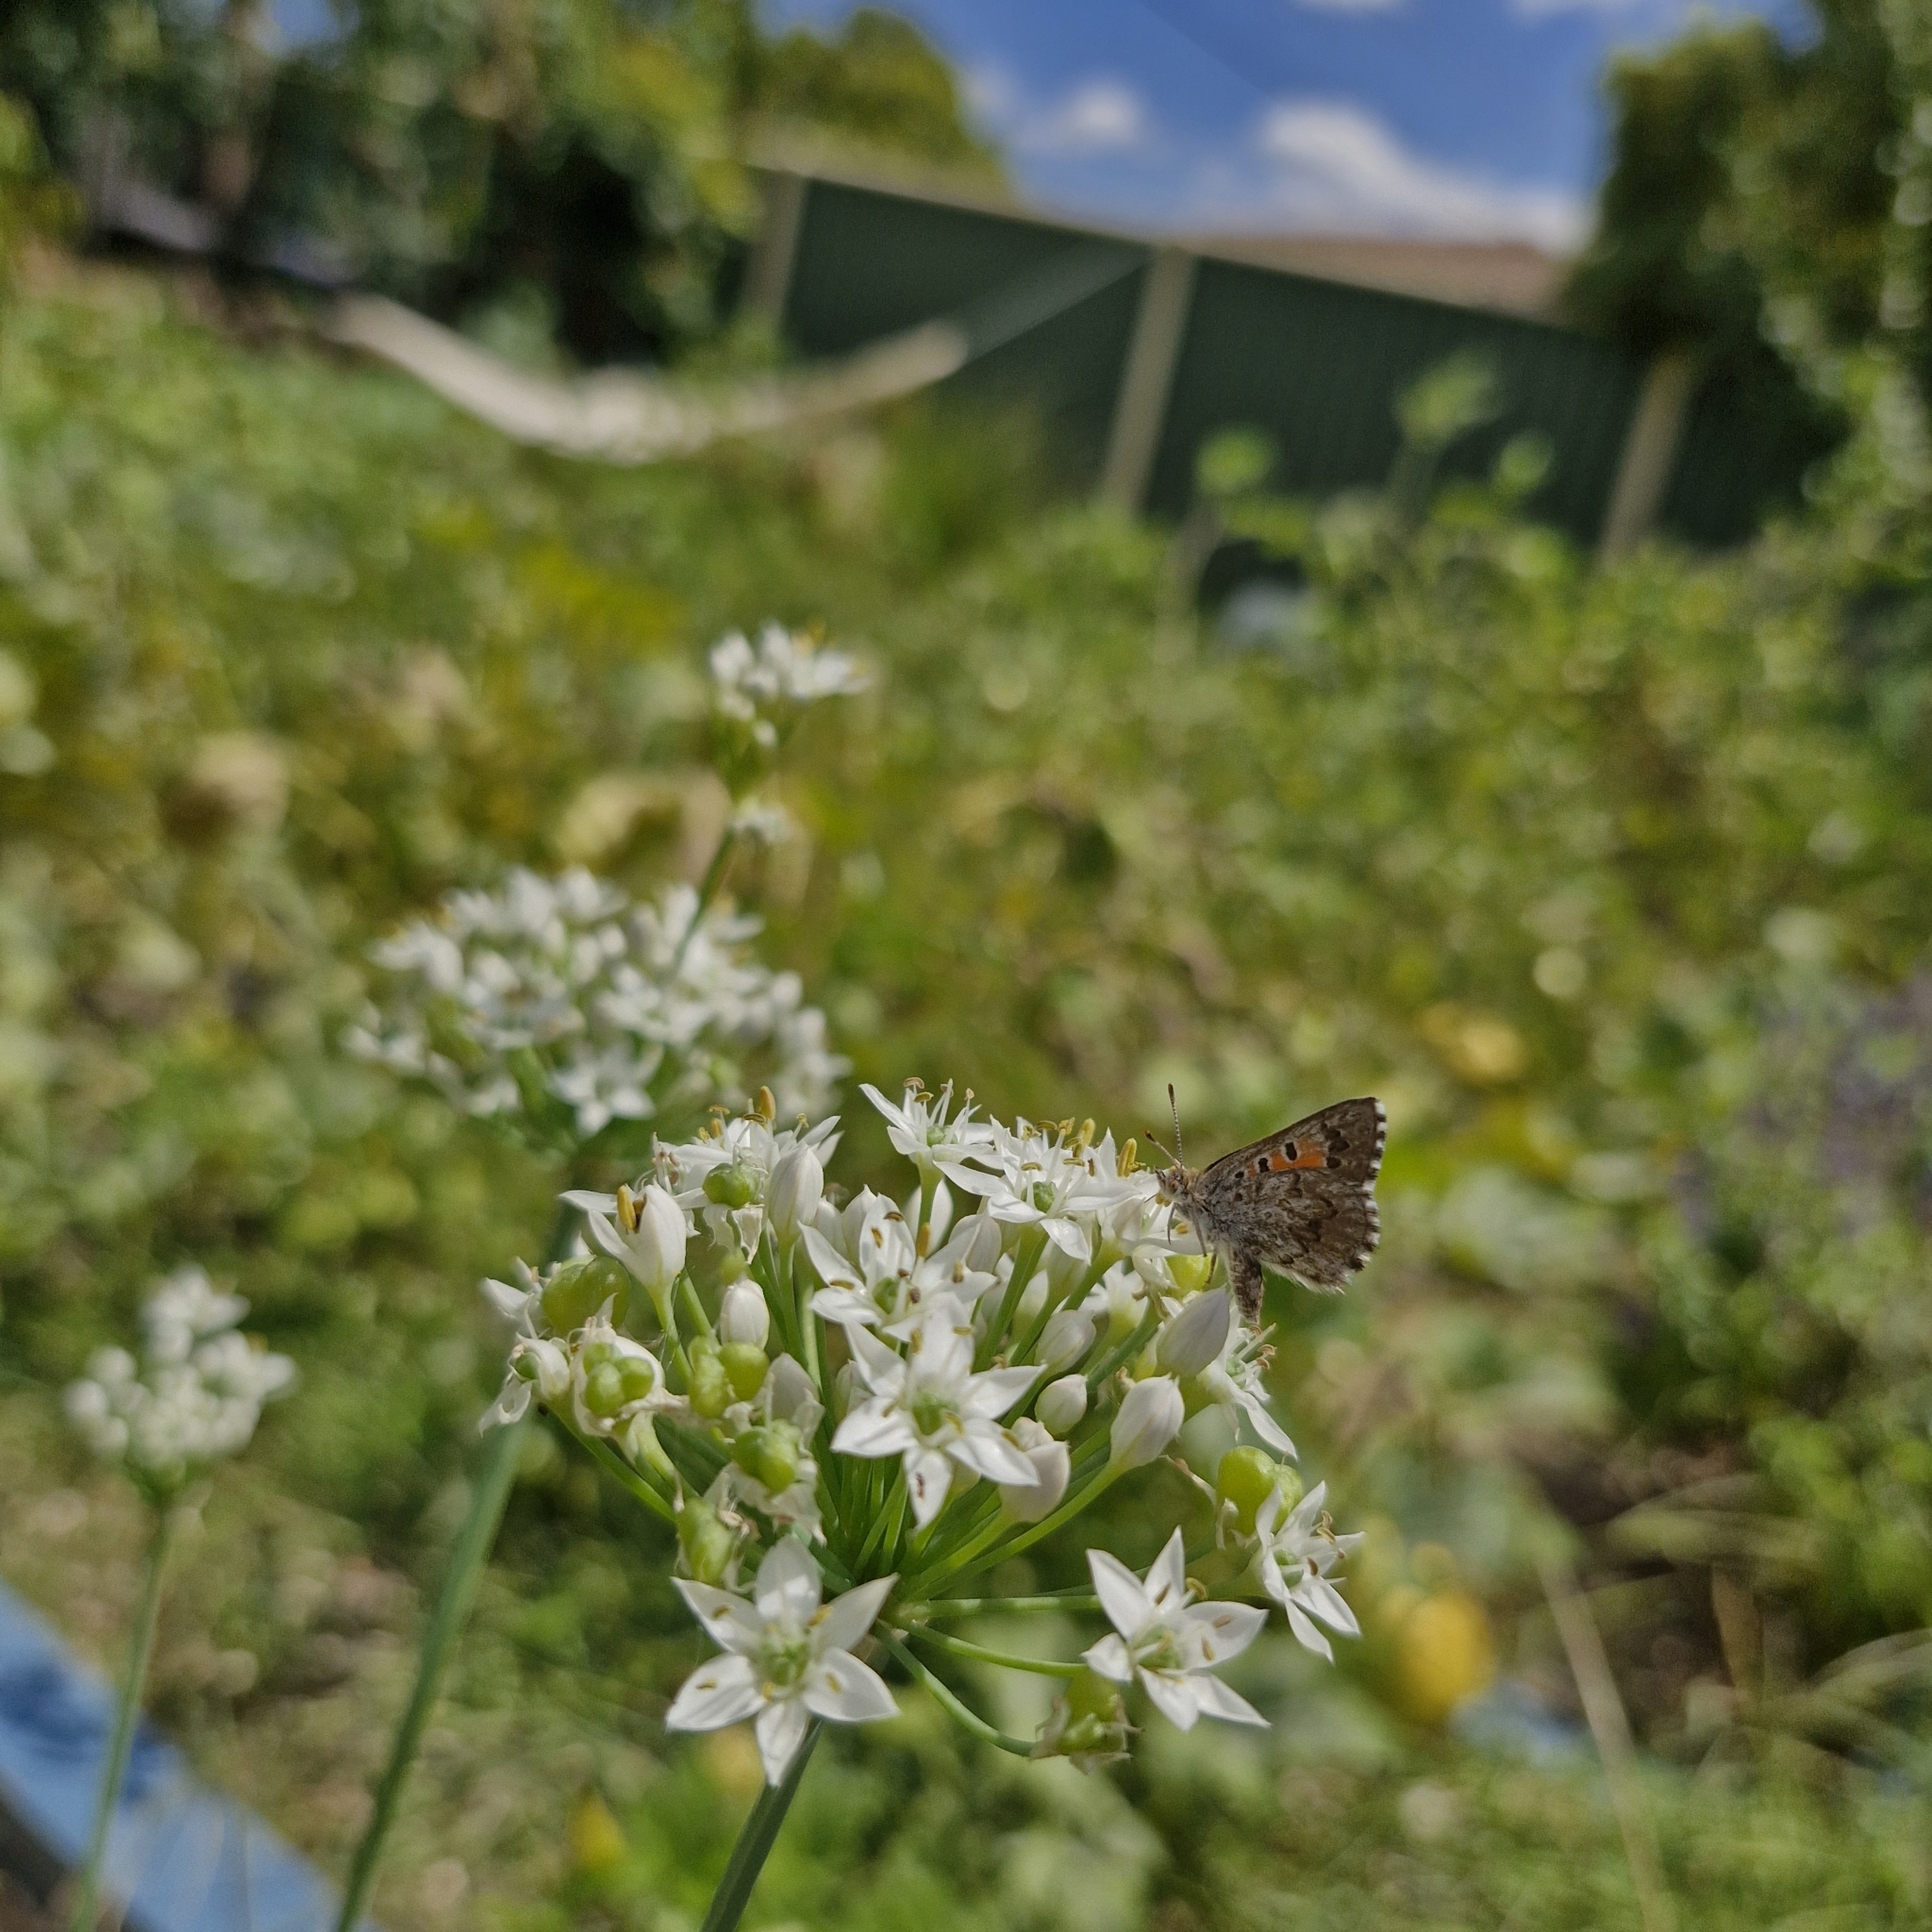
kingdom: Animalia
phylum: Arthropoda
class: Insecta
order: Lepidoptera
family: Lycaenidae
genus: Lucia
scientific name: Lucia limbaria
